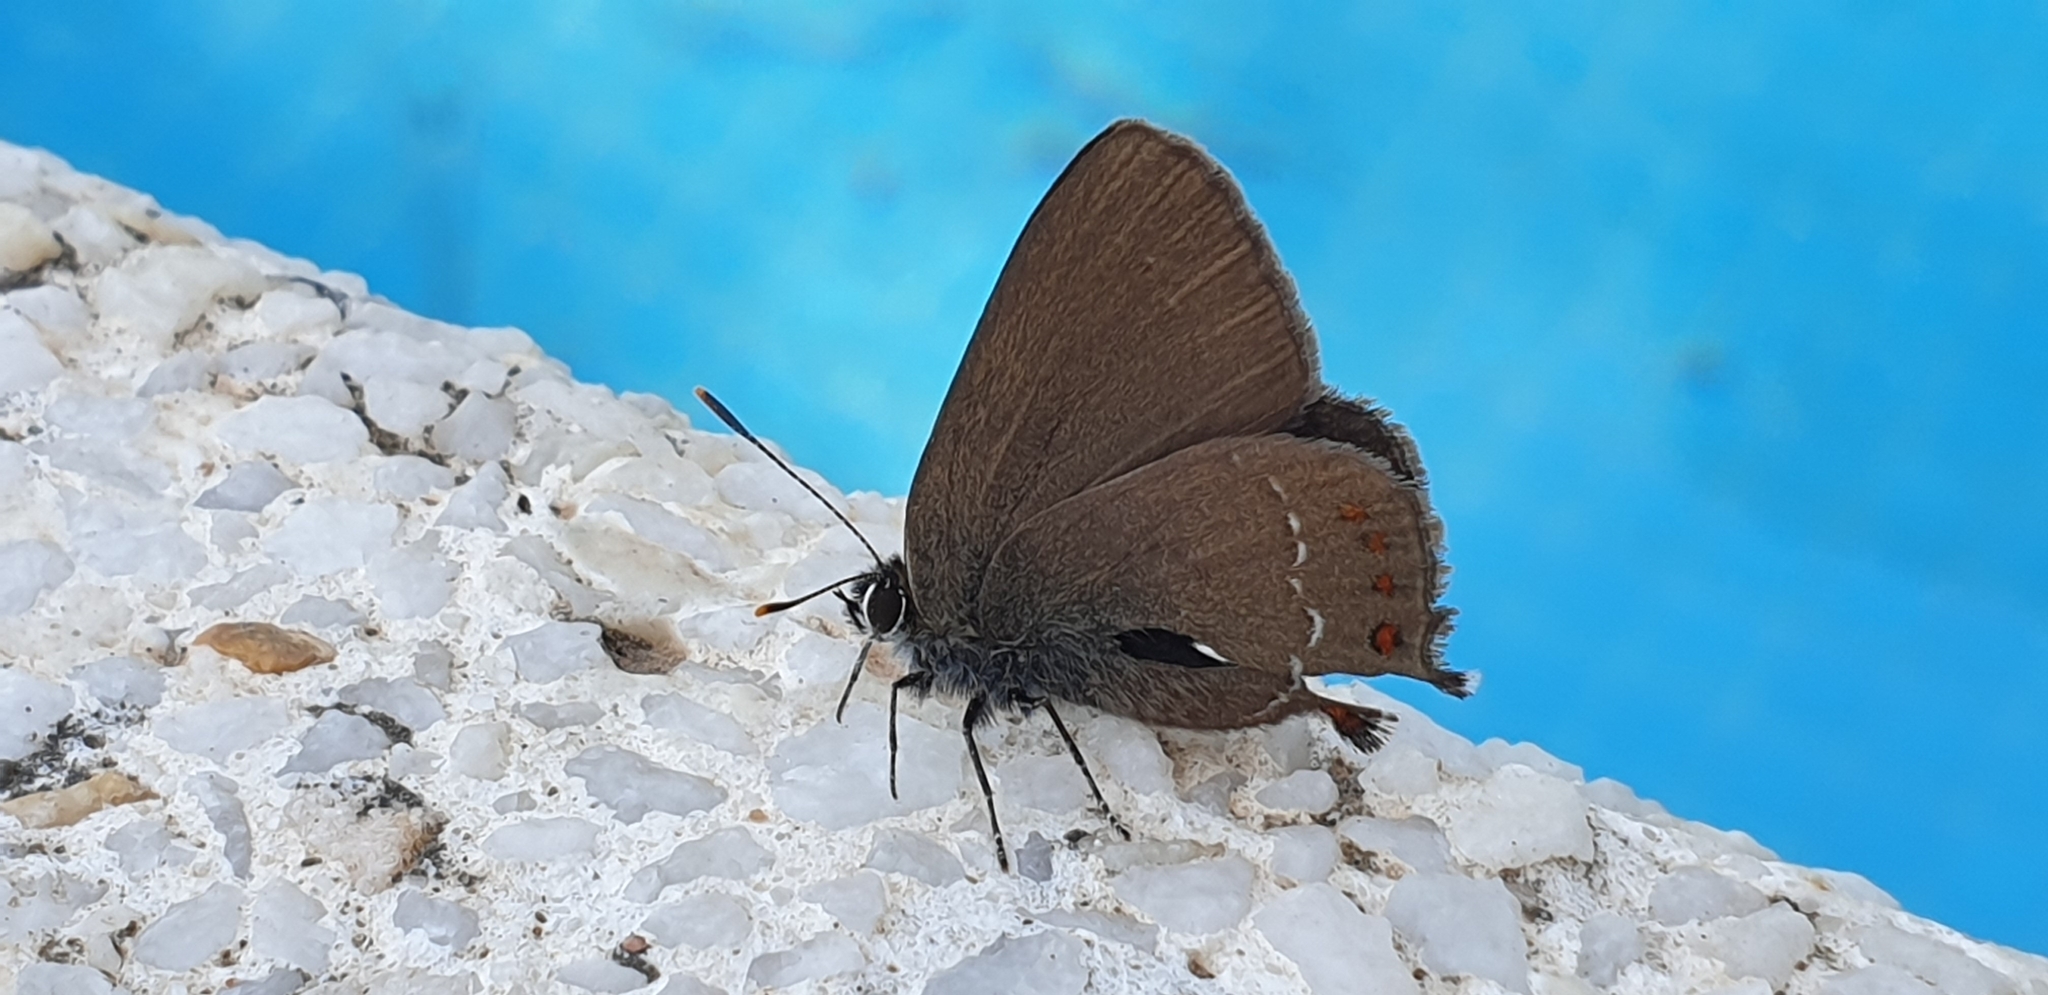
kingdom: Animalia
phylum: Arthropoda
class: Insecta
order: Lepidoptera
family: Lycaenidae
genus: Fixsenia
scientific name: Fixsenia esculi
